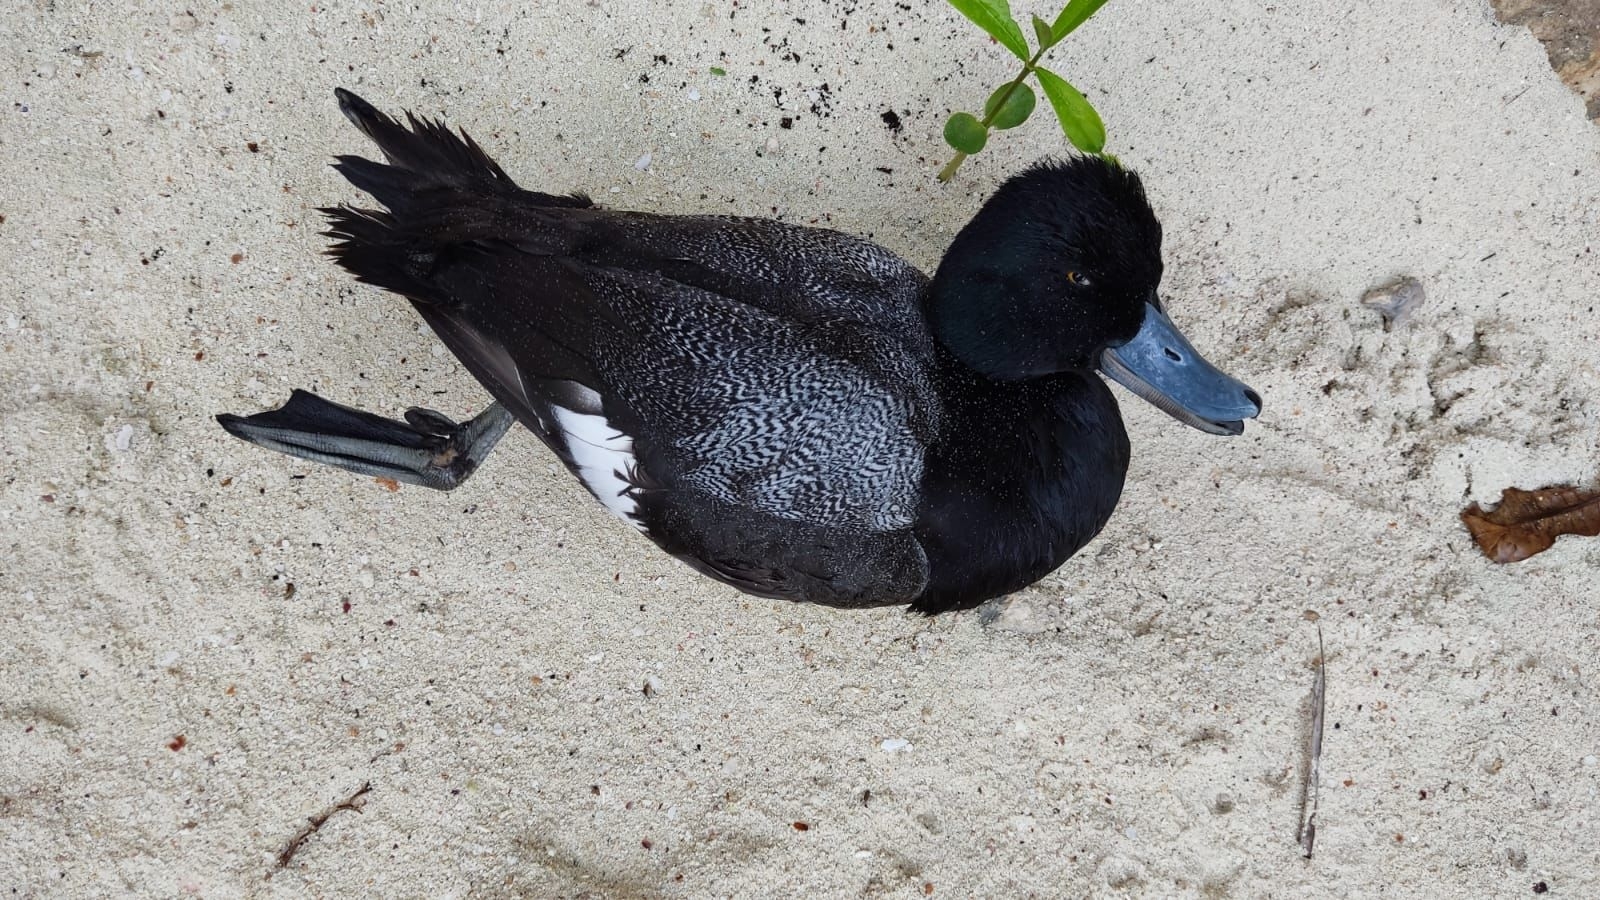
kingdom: Animalia
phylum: Chordata
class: Aves
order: Anseriformes
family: Anatidae
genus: Aythya
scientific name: Aythya affinis
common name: Lesser scaup
